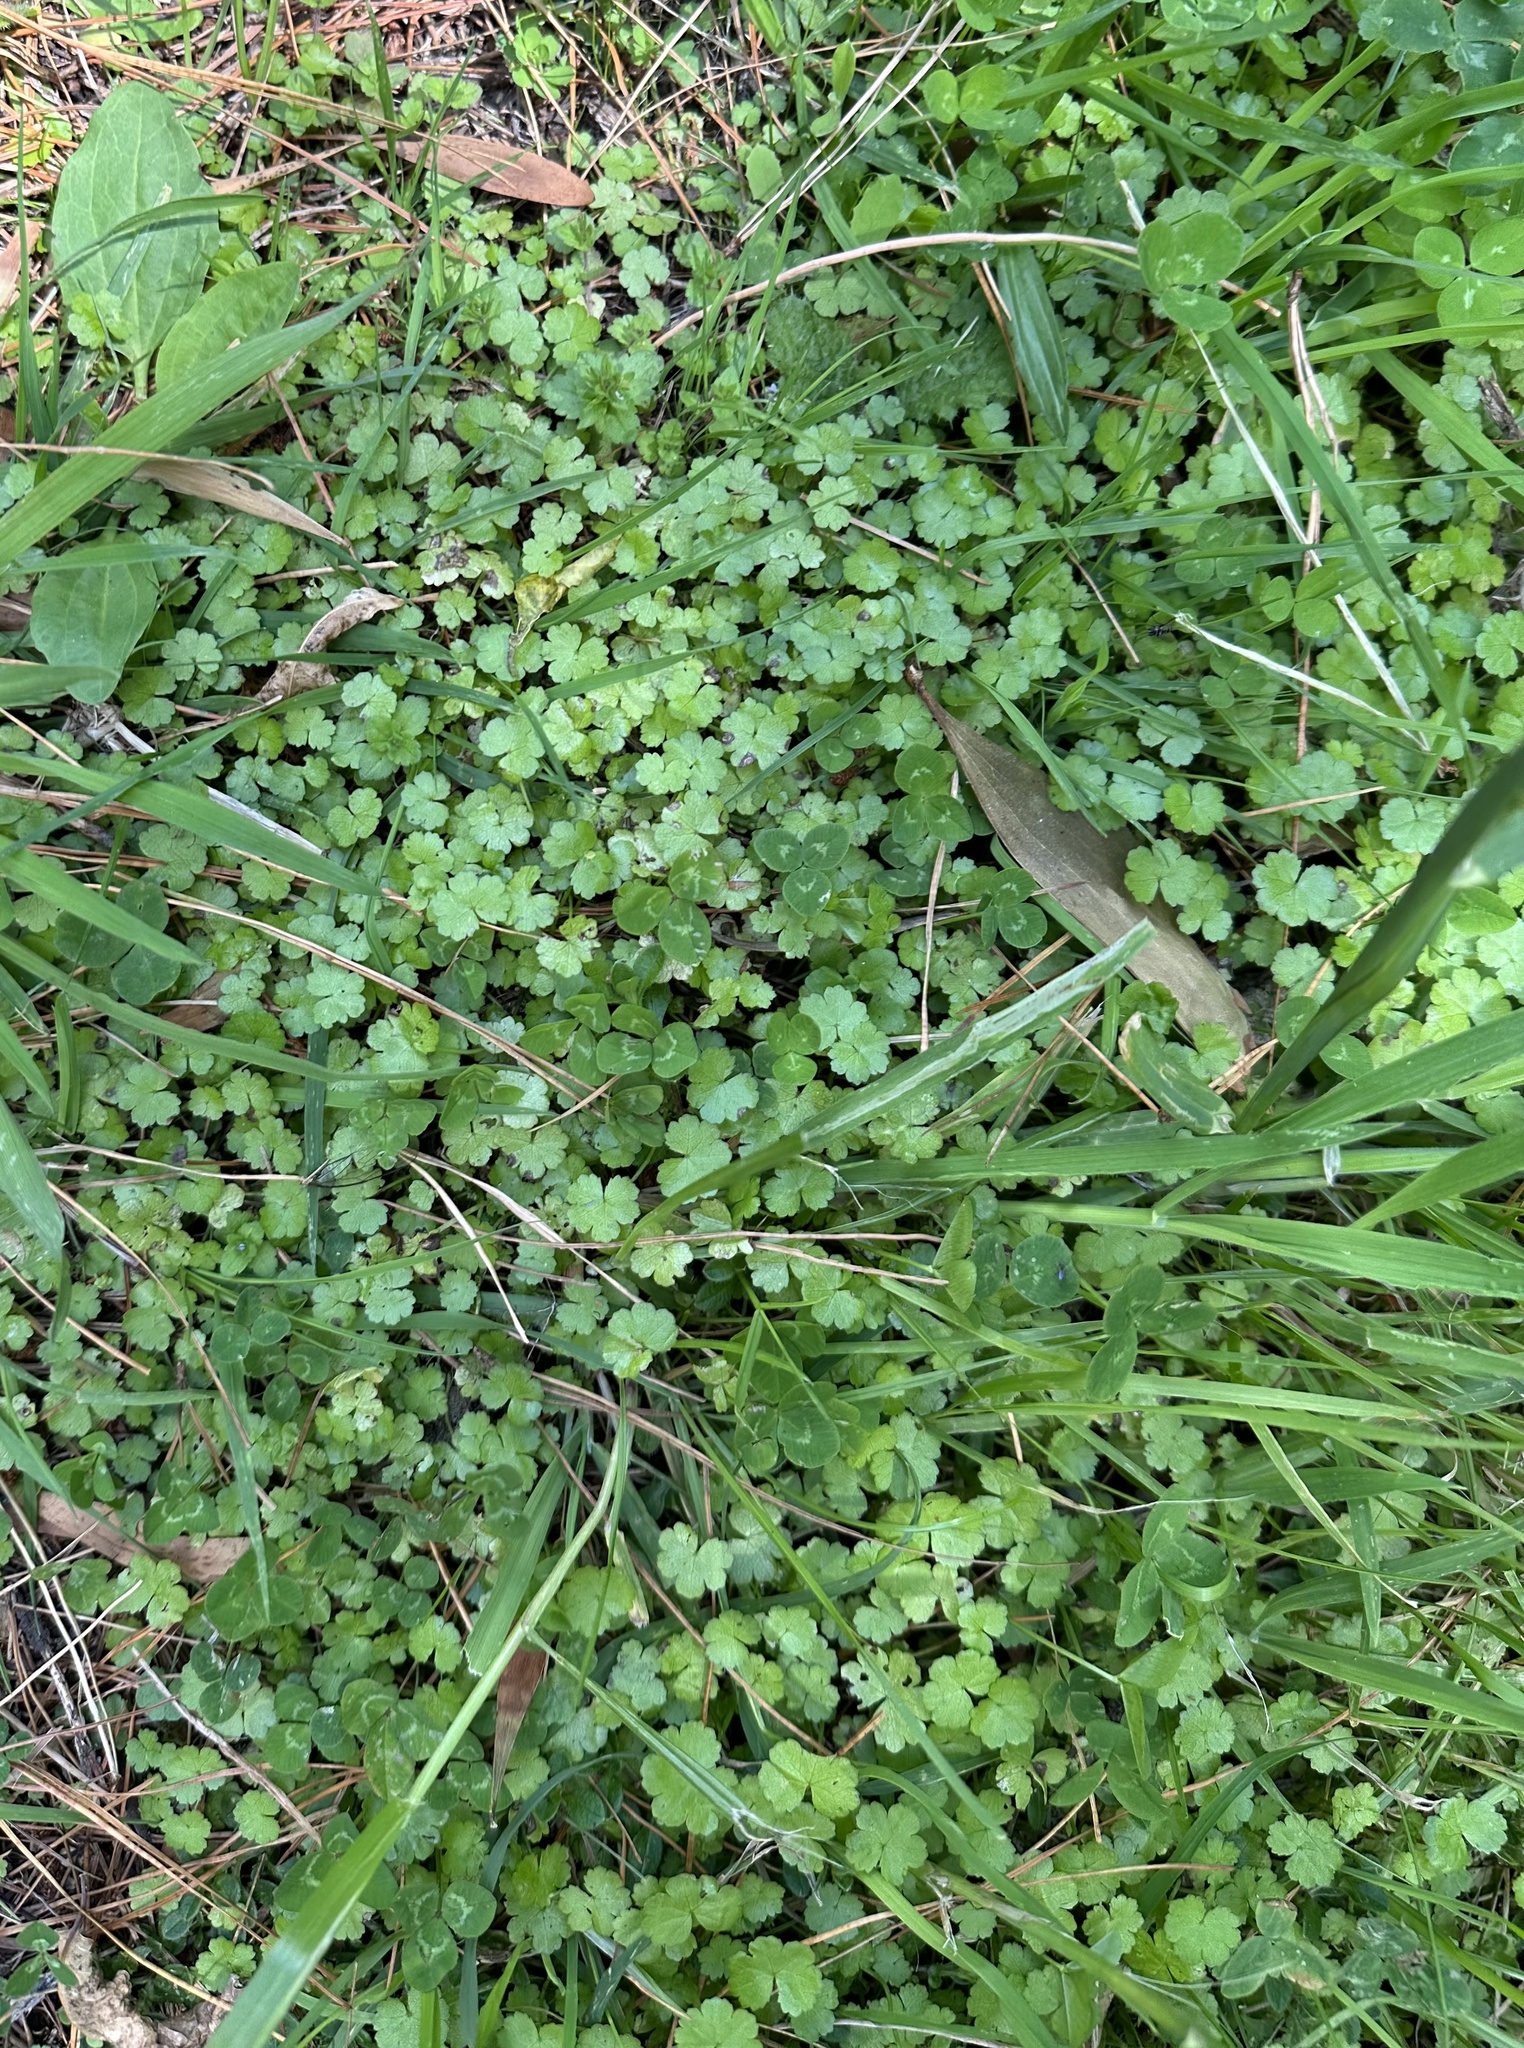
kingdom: Plantae
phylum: Tracheophyta
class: Magnoliopsida
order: Apiales
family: Araliaceae
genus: Hydrocotyle
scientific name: Hydrocotyle heteromeria
